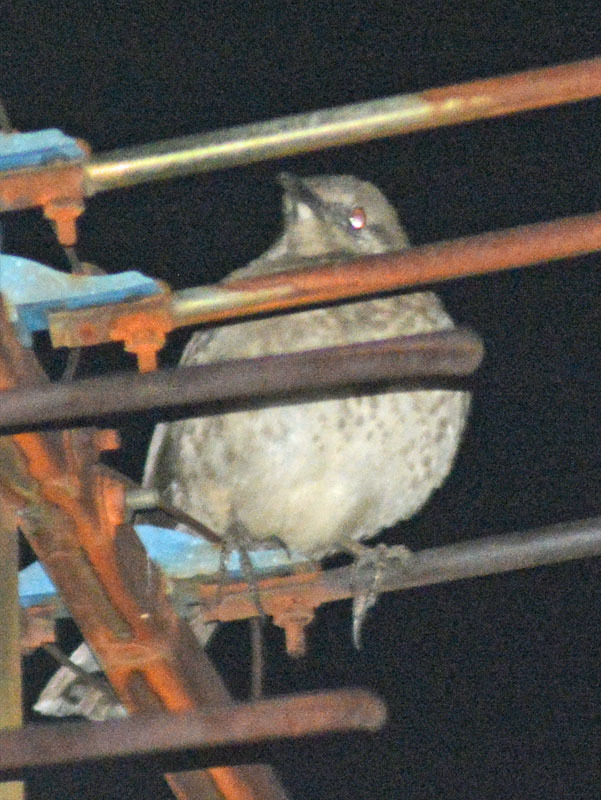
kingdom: Animalia
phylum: Chordata
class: Aves
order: Passeriformes
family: Mimidae
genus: Toxostoma
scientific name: Toxostoma curvirostre
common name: Curve-billed thrasher
